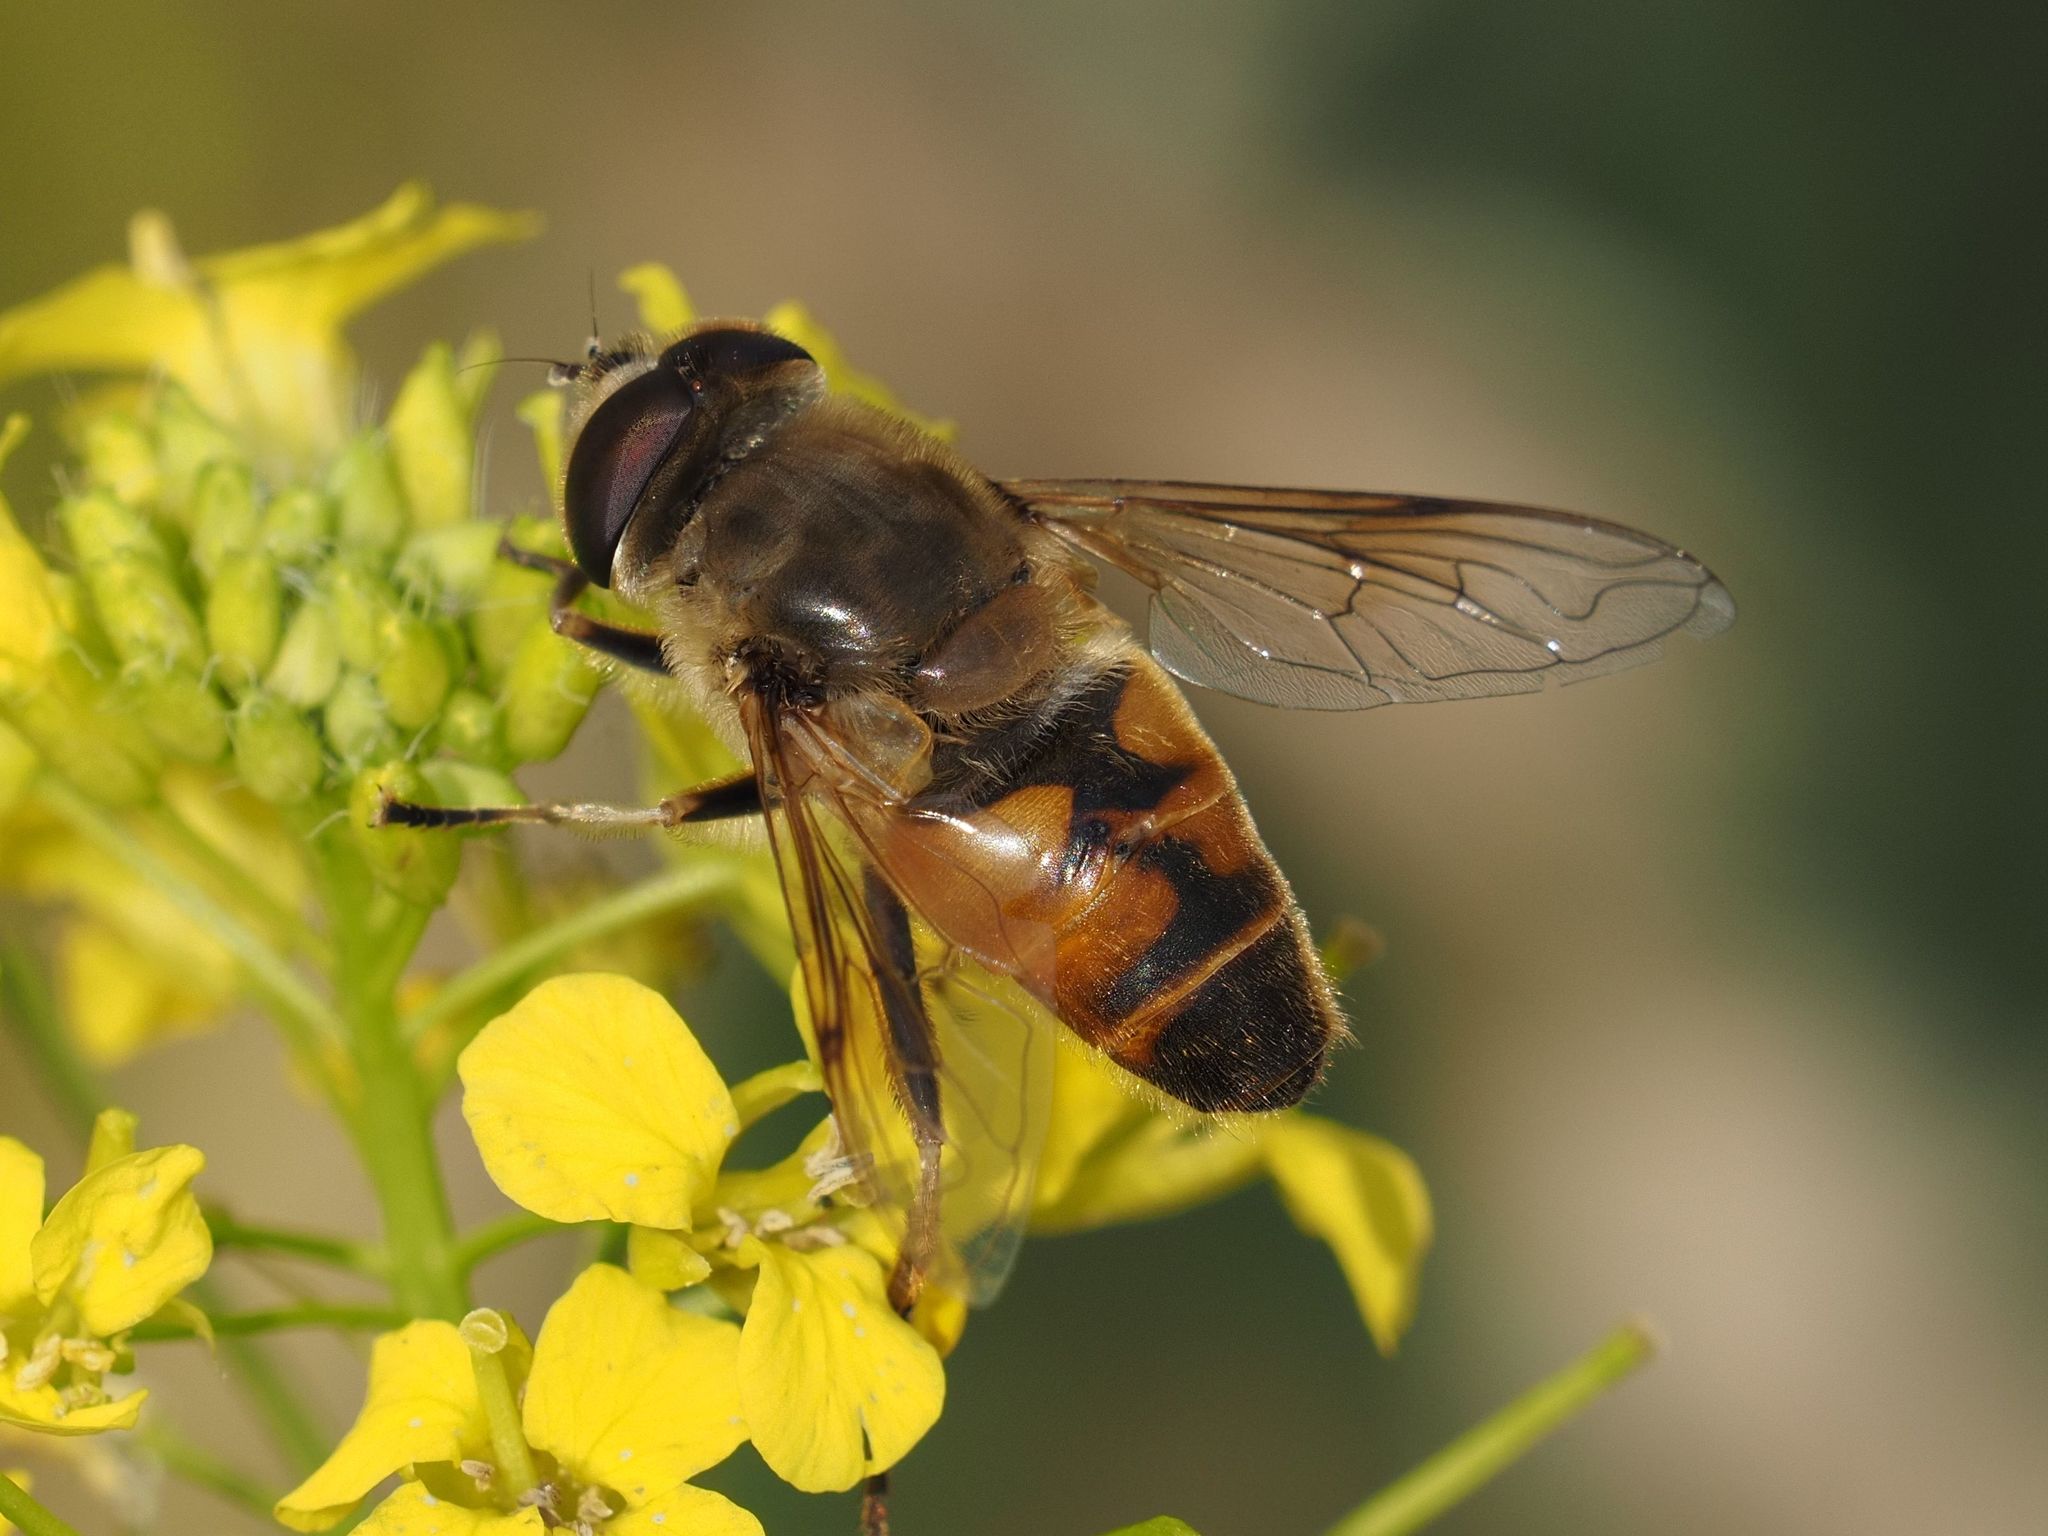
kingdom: Animalia
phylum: Arthropoda
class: Insecta
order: Diptera
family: Syrphidae
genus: Eristalis
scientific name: Eristalis tenax
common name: Drone fly
